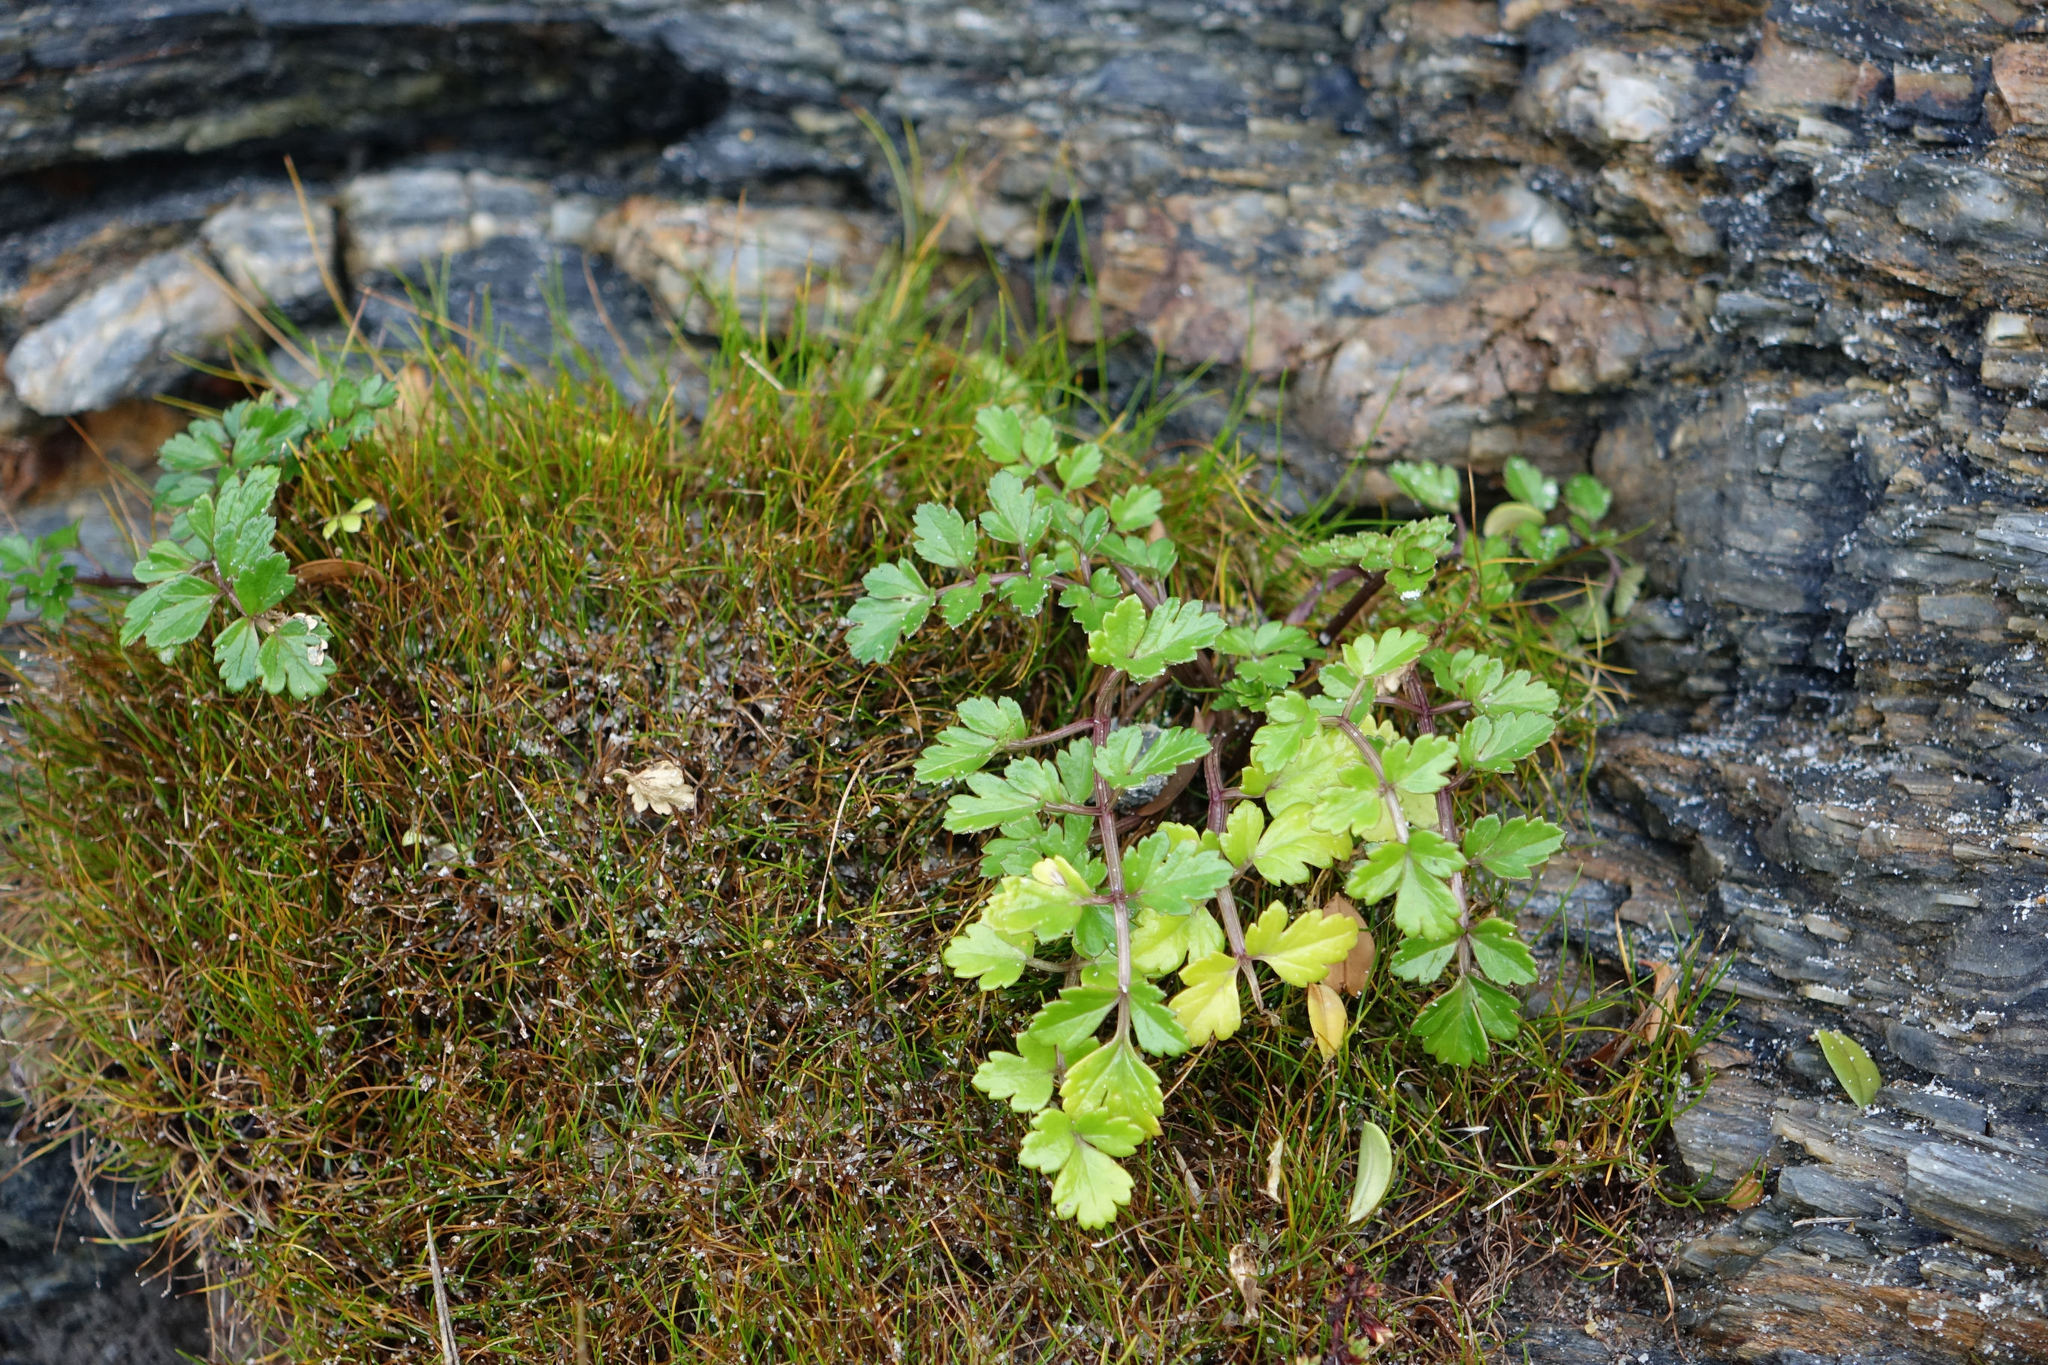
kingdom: Plantae
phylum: Tracheophyta
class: Magnoliopsida
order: Apiales
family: Apiaceae
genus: Apium
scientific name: Apium prostratum
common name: Prostrate marshwort
